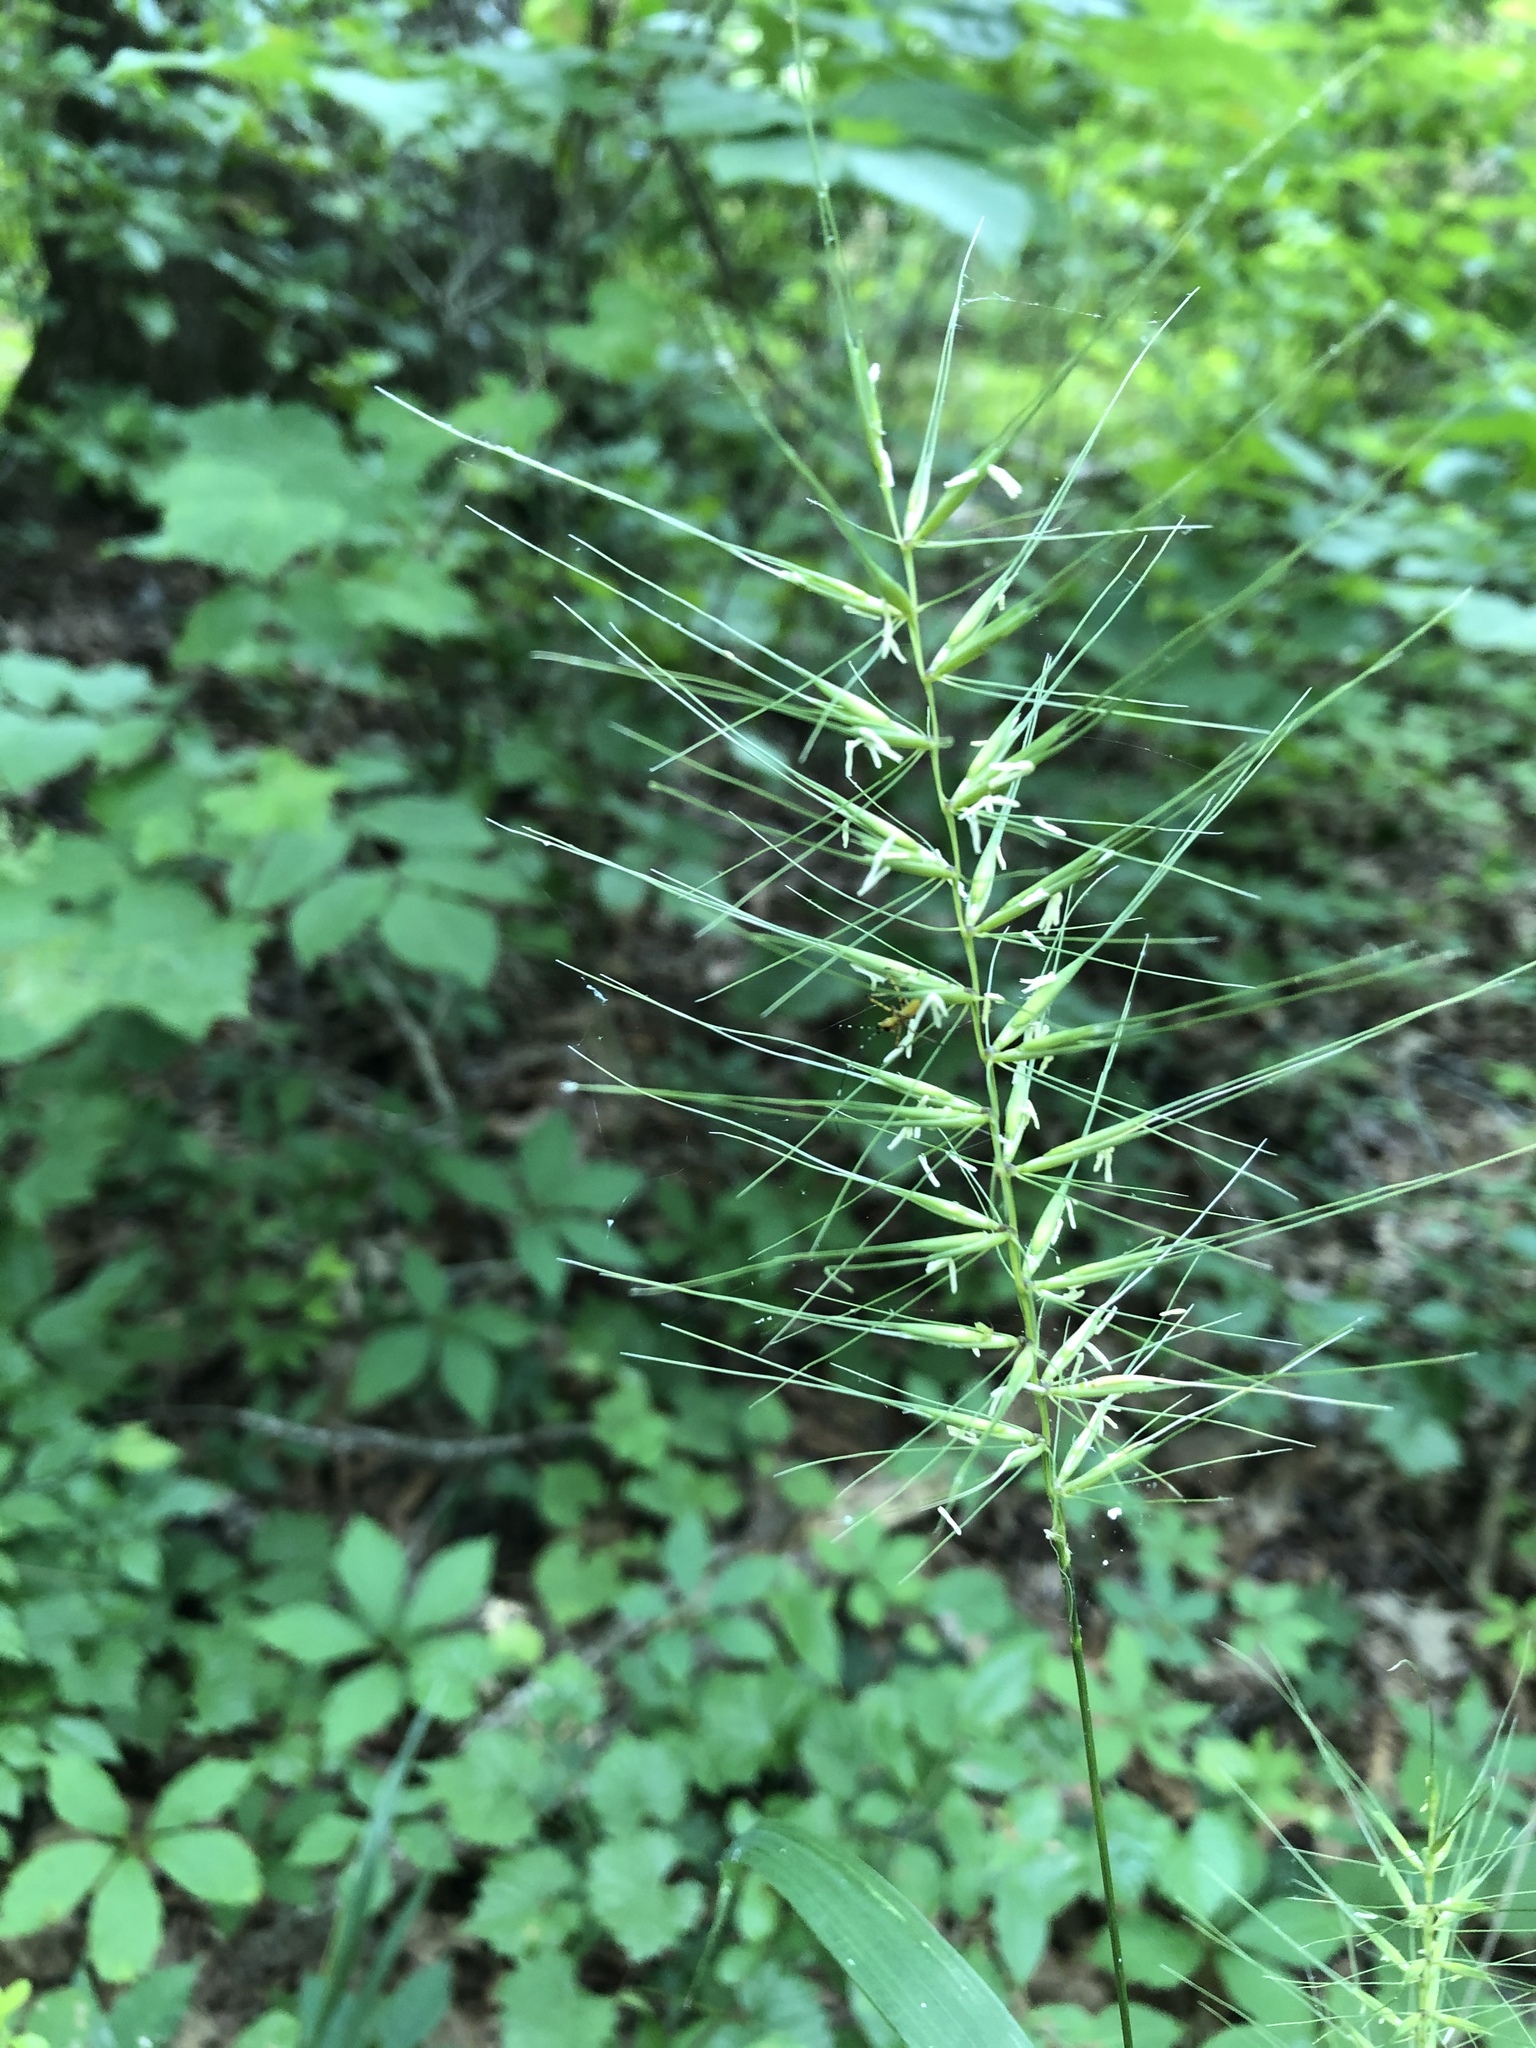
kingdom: Plantae
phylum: Tracheophyta
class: Liliopsida
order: Poales
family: Poaceae
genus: Elymus
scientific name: Elymus hystrix
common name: Bottlebrush grass
